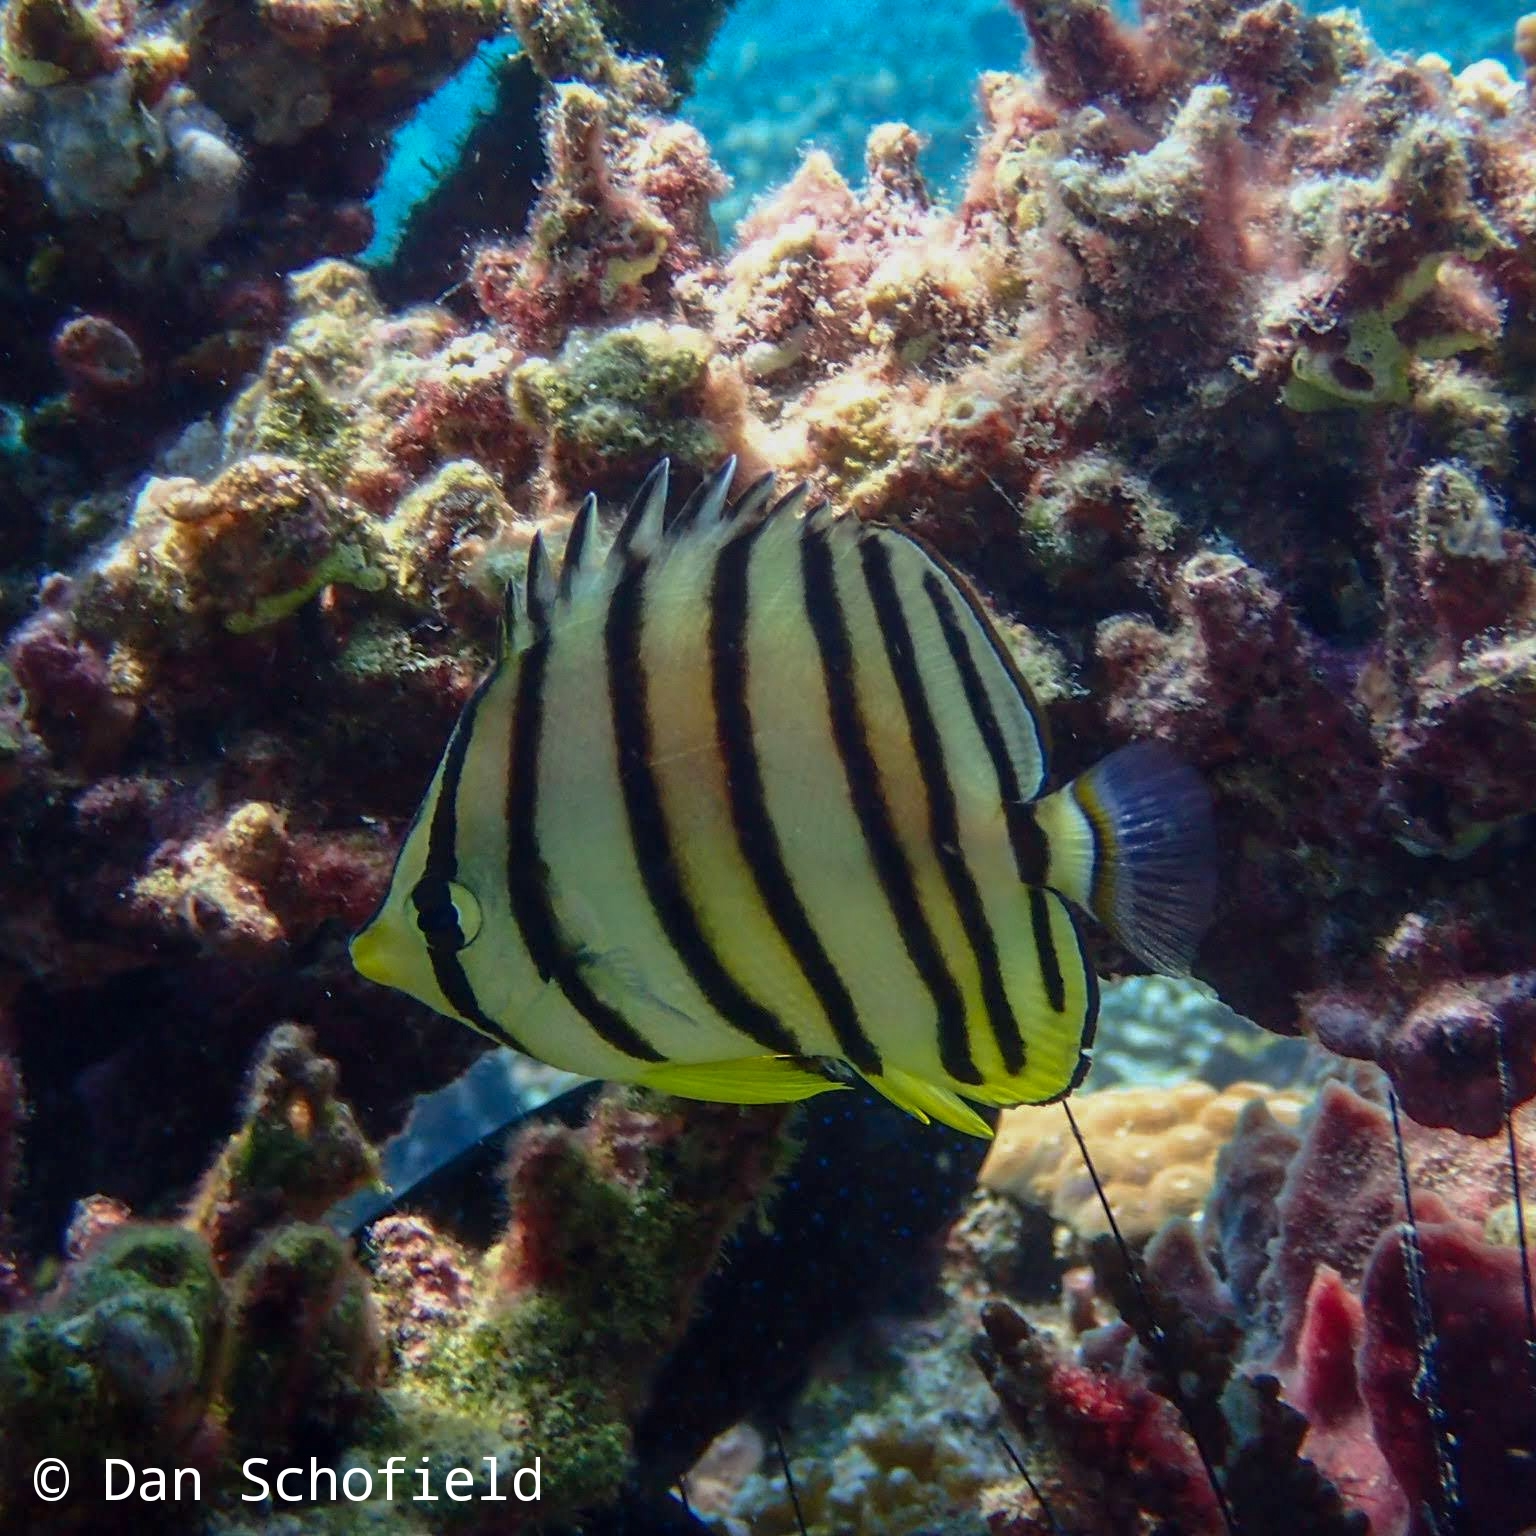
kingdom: Animalia
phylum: Chordata
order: Perciformes
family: Chaetodontidae
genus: Chaetodon
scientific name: Chaetodon octofasciatus
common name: Eightband butterflyfish
